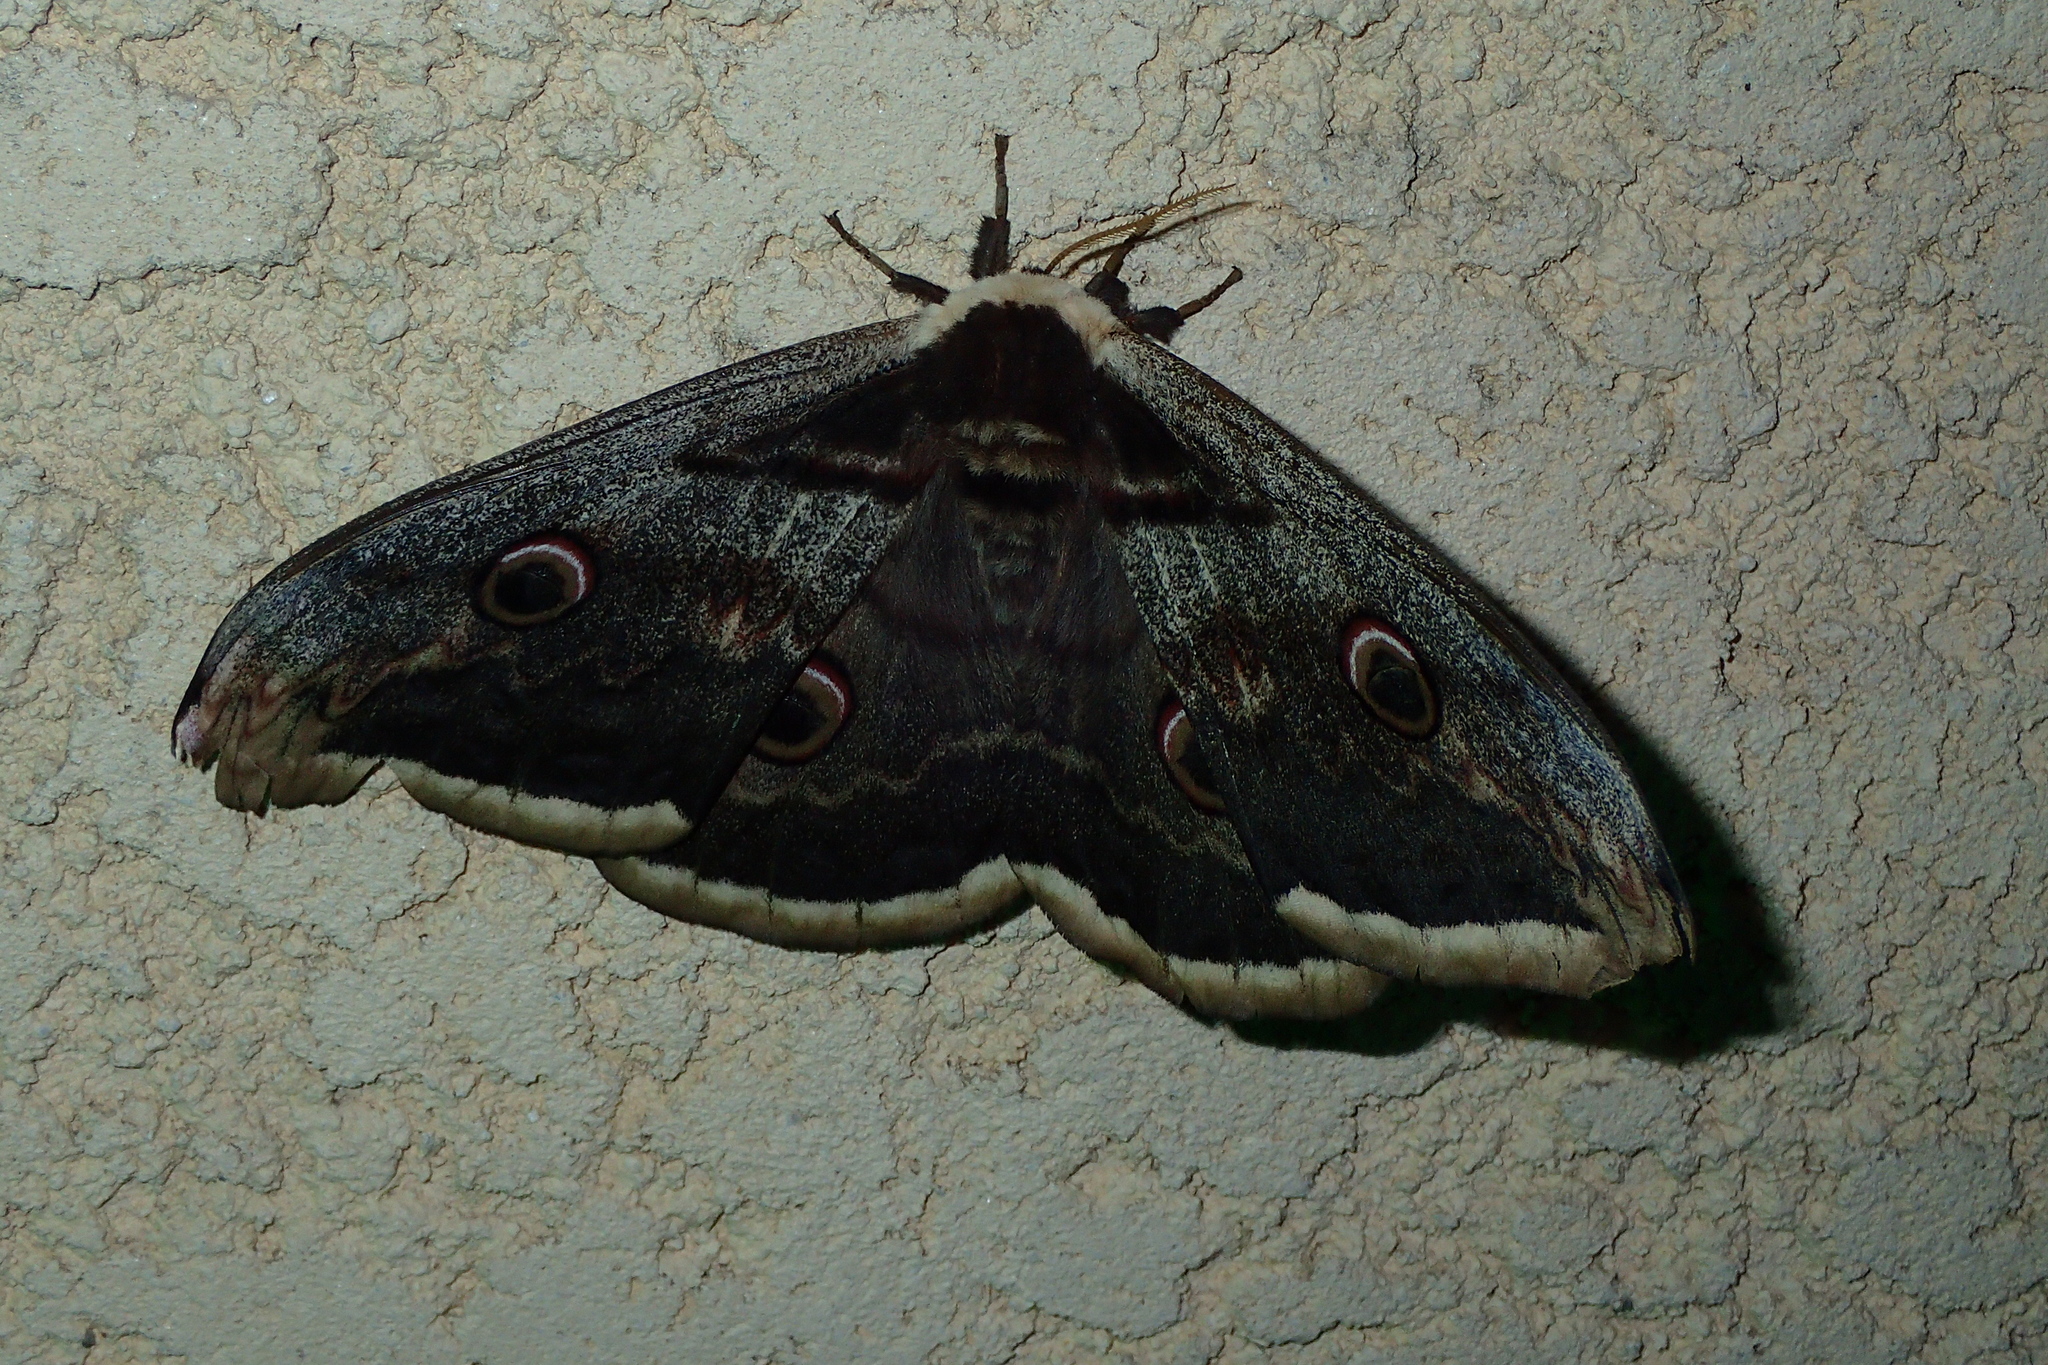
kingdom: Animalia
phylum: Arthropoda
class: Insecta
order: Lepidoptera
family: Saturniidae
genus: Saturnia
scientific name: Saturnia pyri
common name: Great peacock moth
